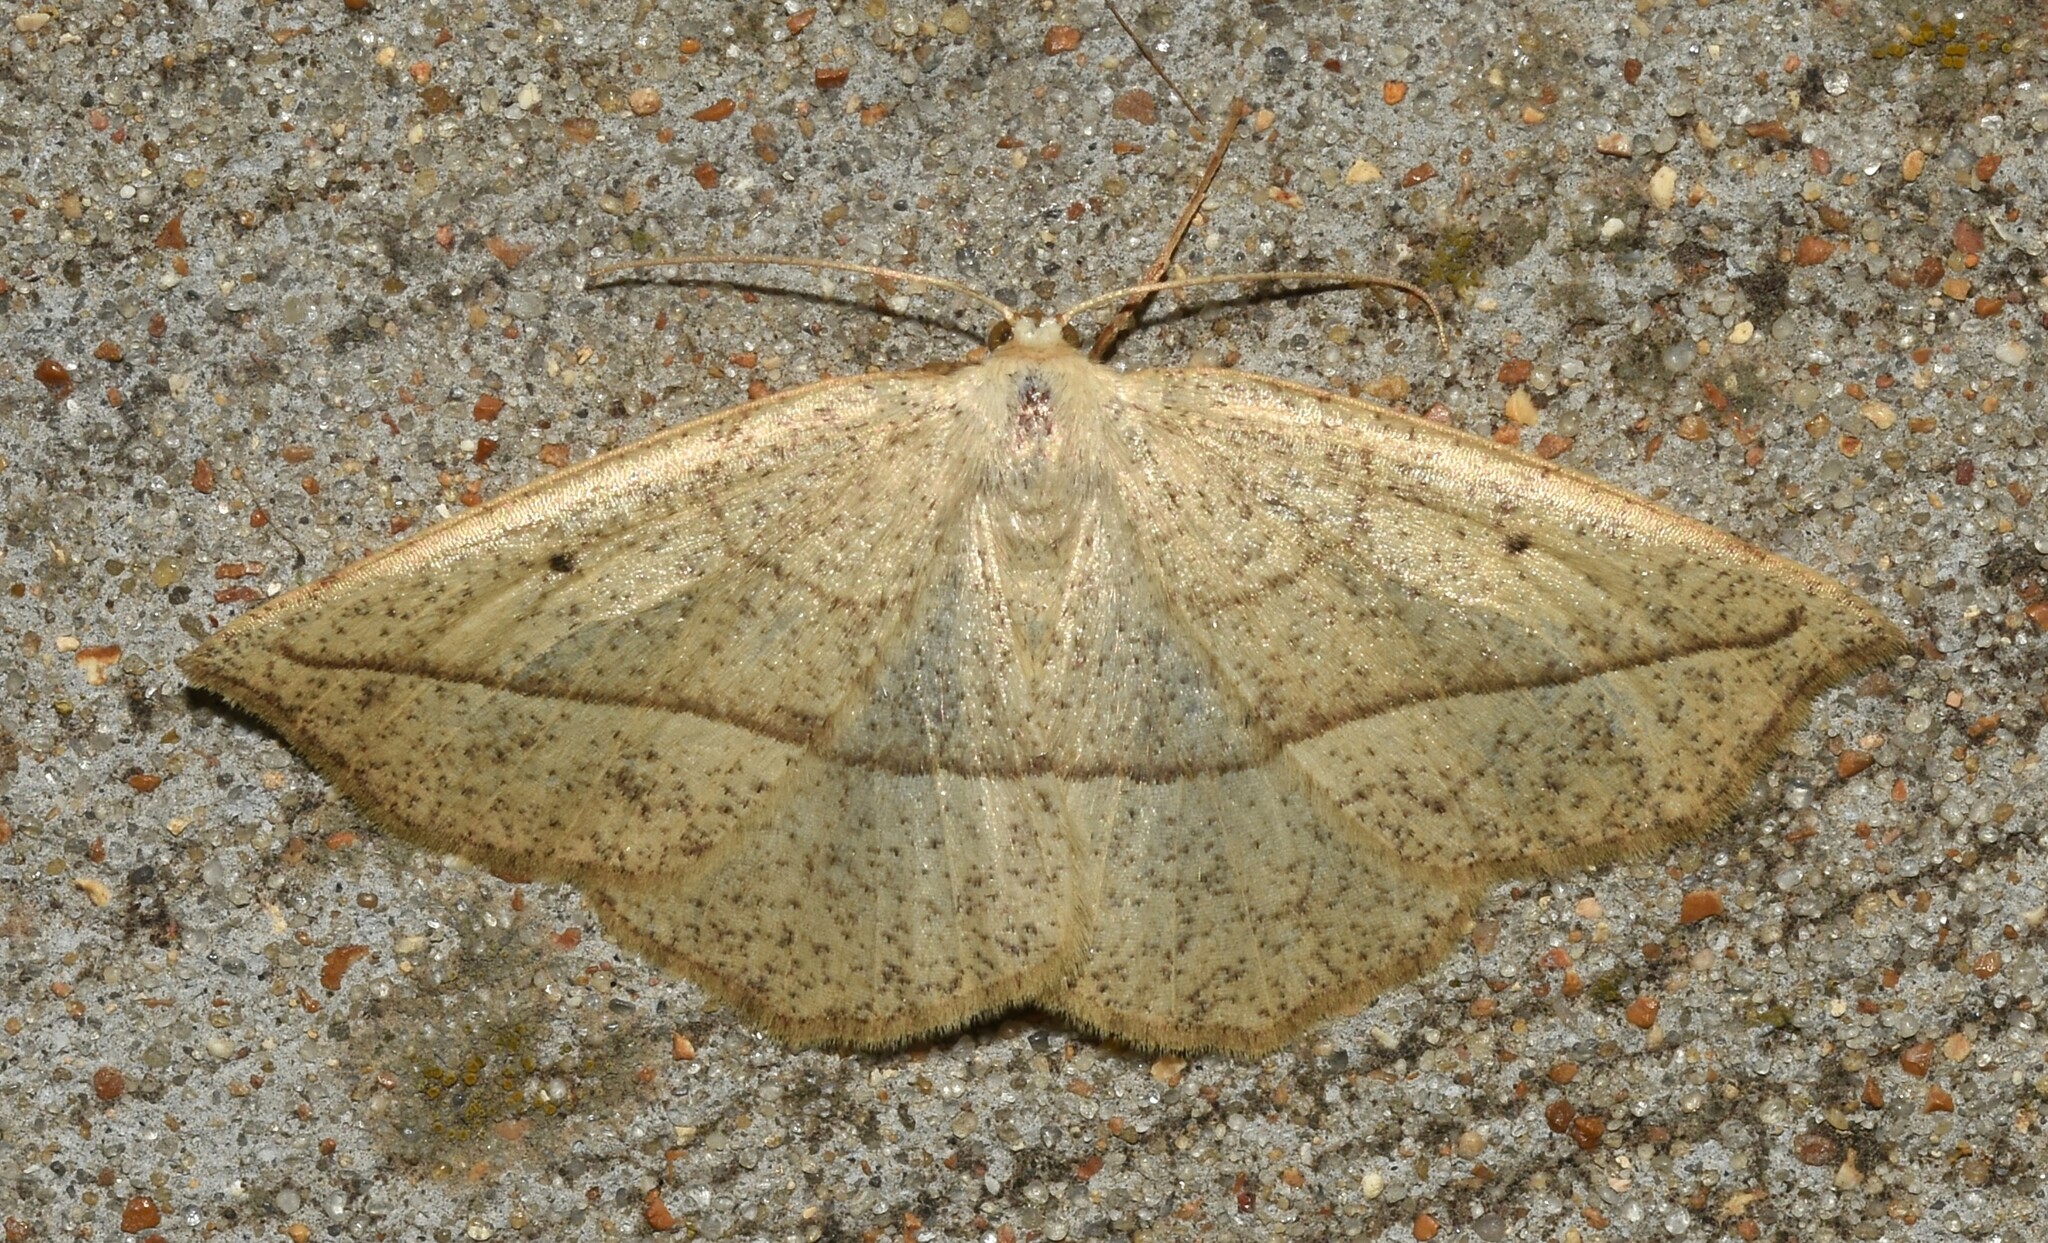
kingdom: Animalia
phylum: Arthropoda
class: Insecta
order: Lepidoptera
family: Geometridae
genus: Eusarca
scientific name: Eusarca confusaria
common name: Confused eusarca
